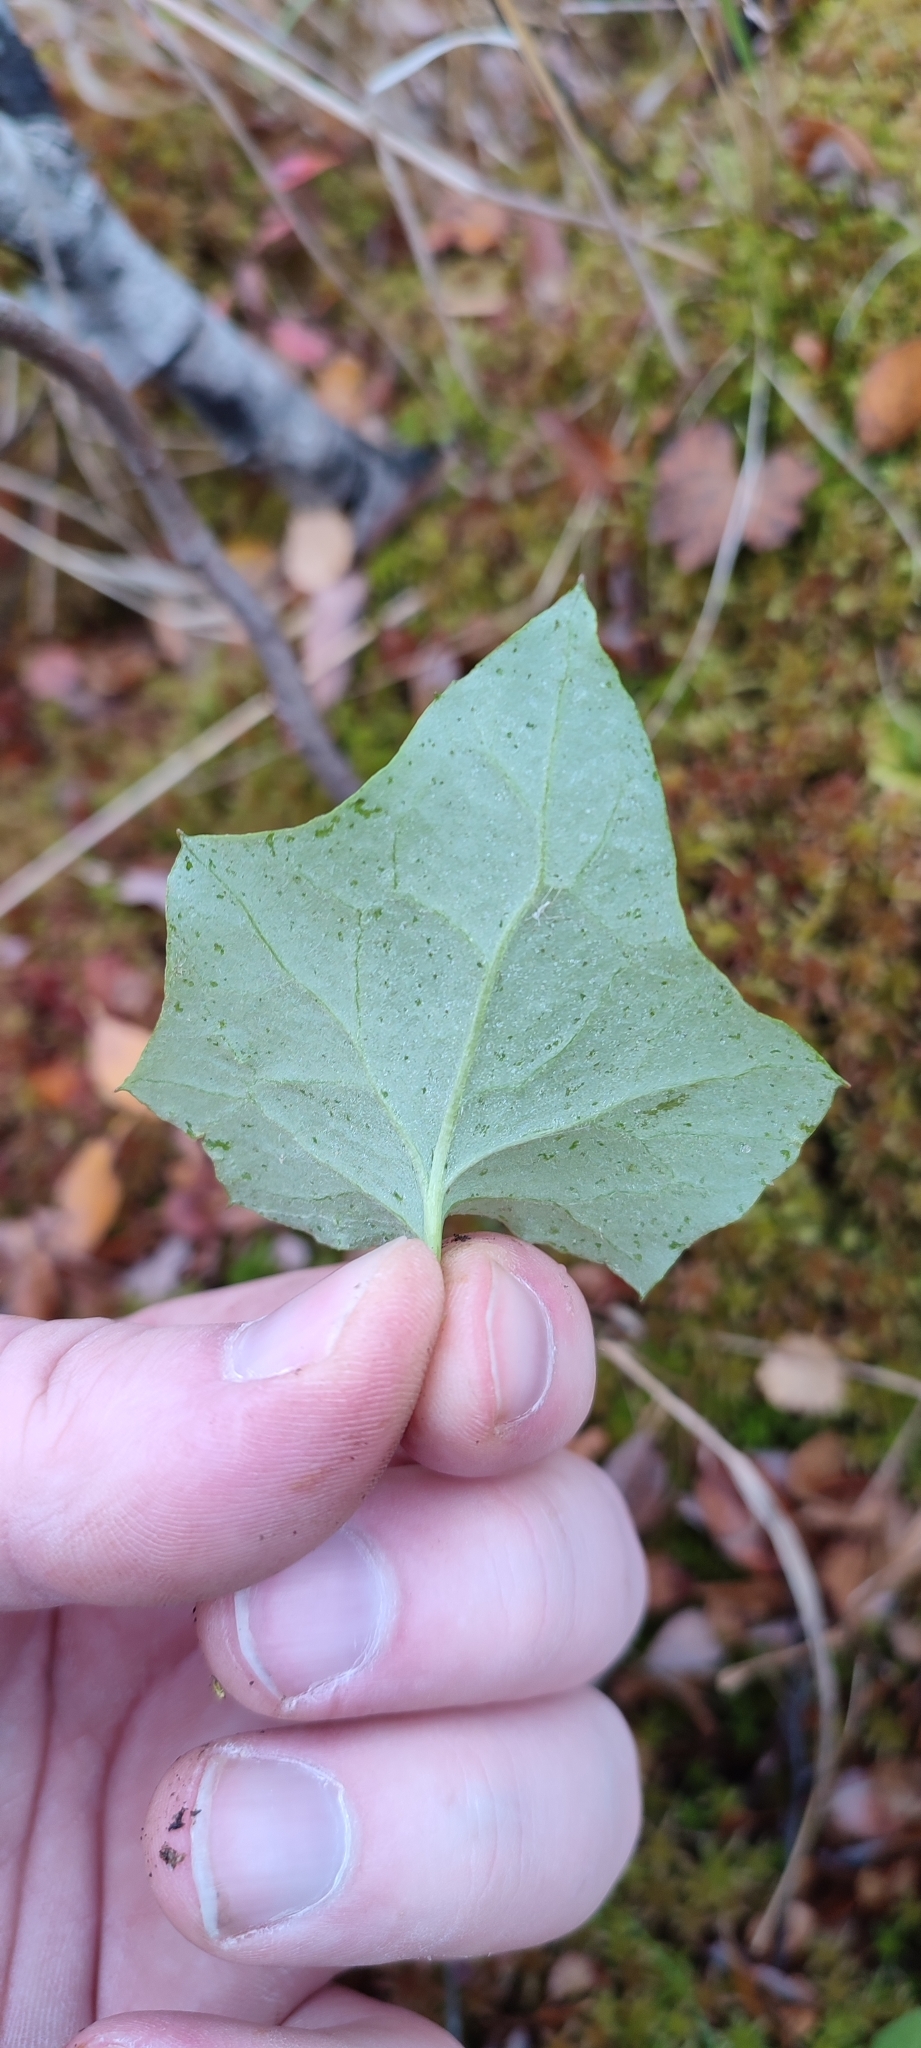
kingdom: Plantae
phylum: Tracheophyta
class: Magnoliopsida
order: Asterales
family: Asteraceae
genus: Petasites
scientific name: Petasites frigidus
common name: Arctic butterbur
